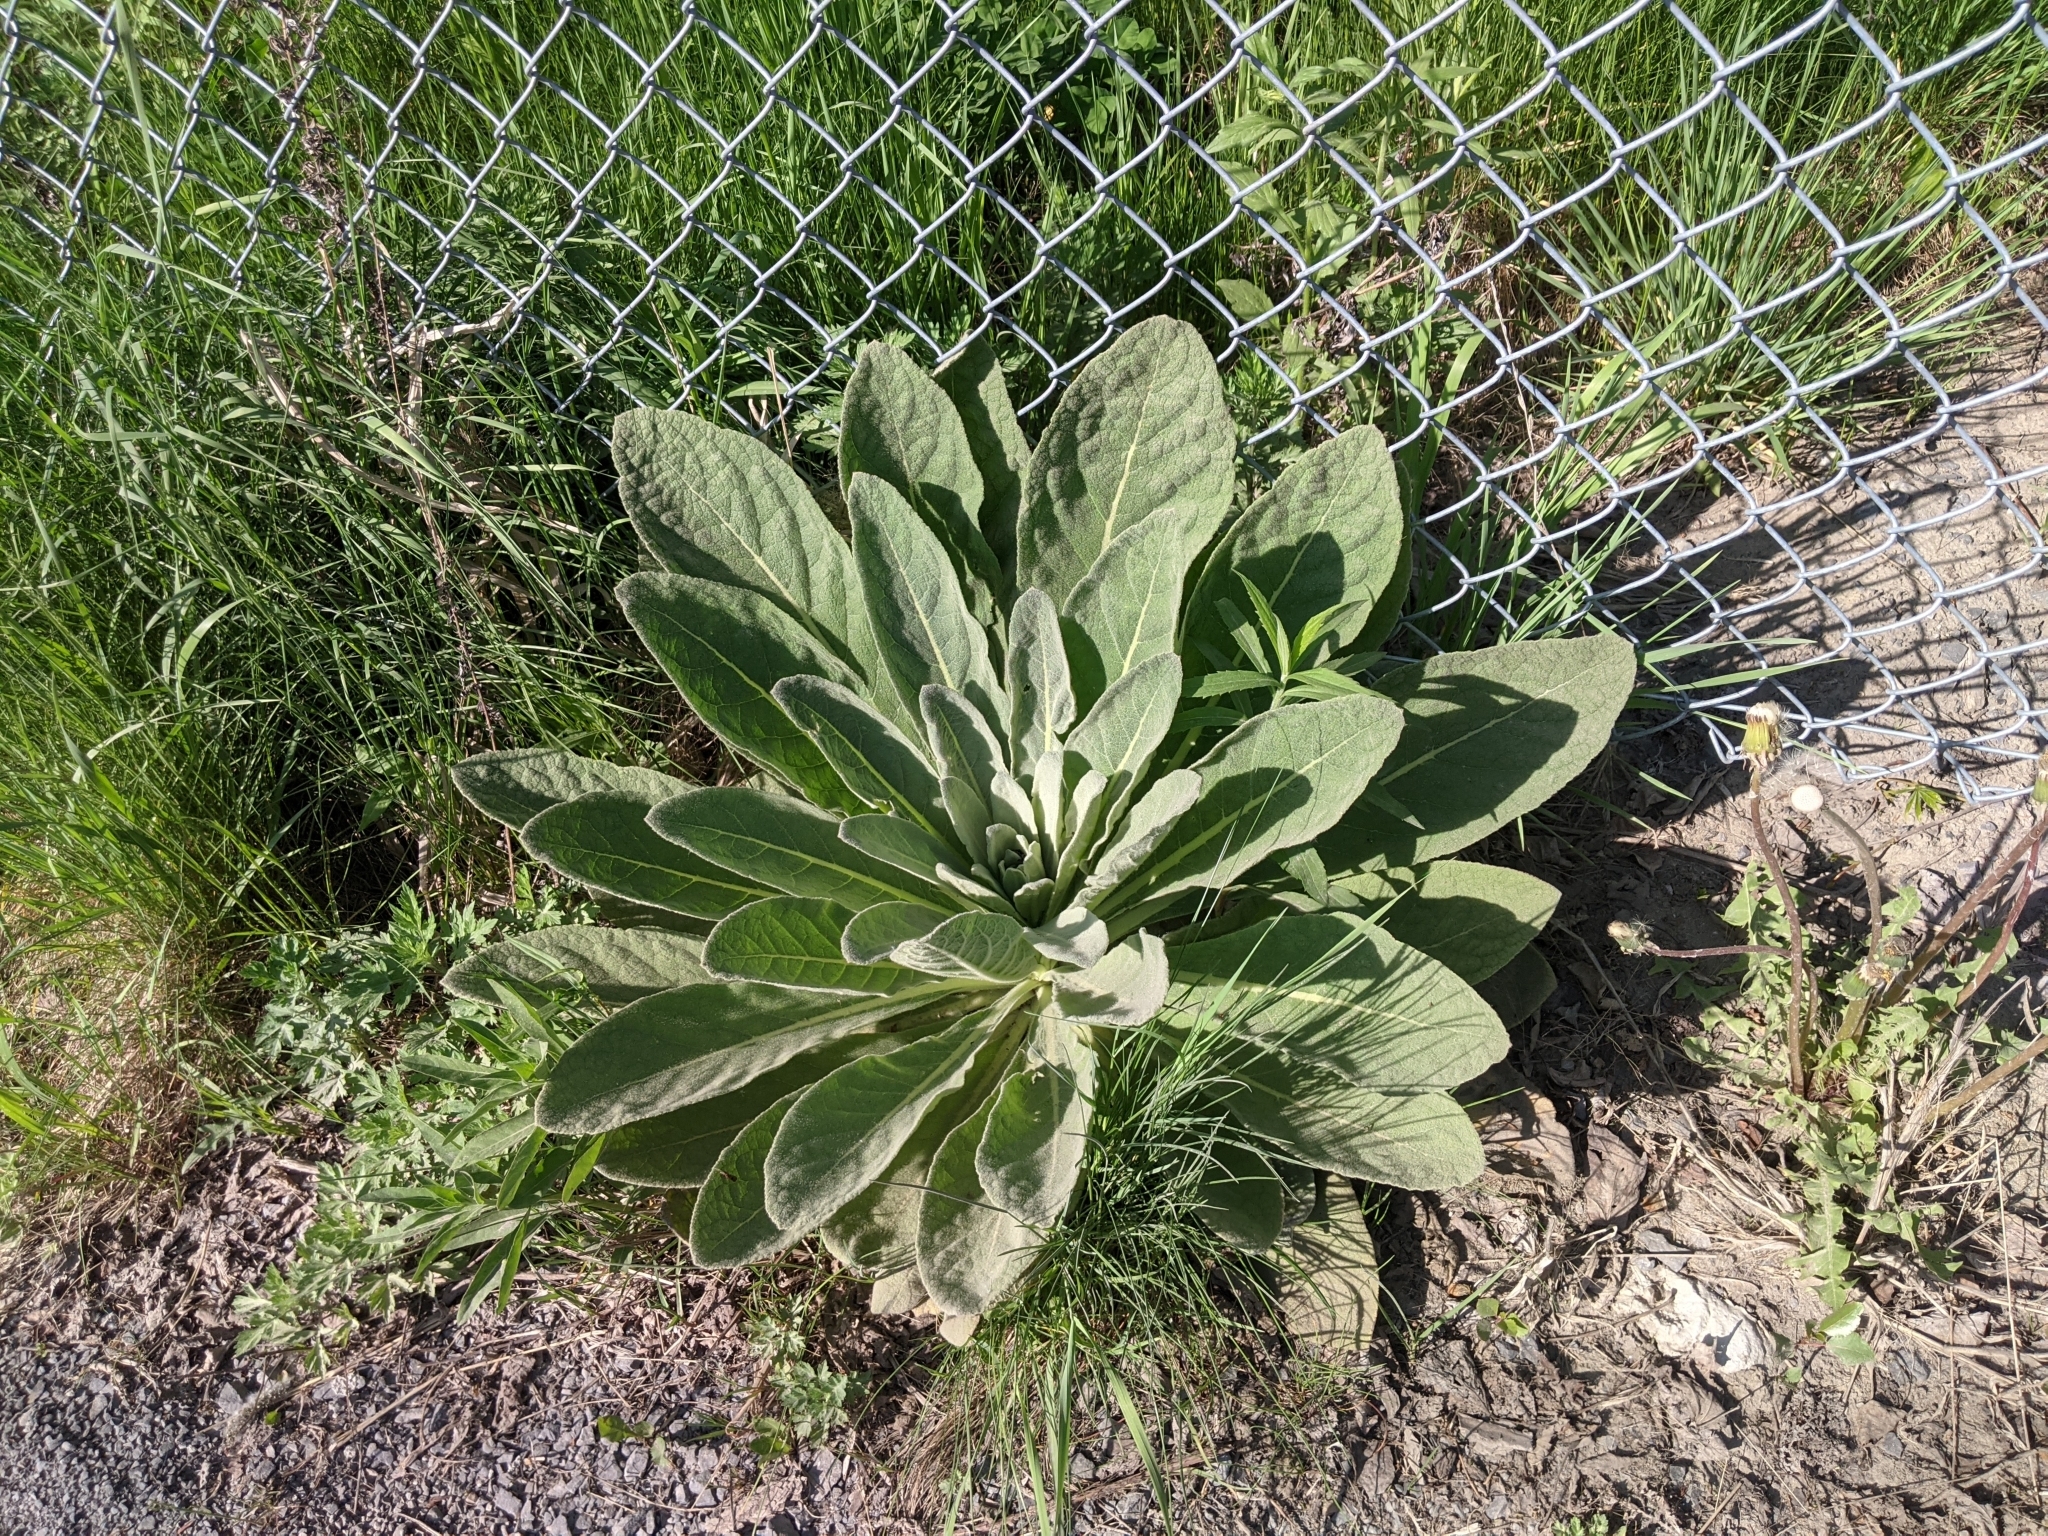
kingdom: Plantae
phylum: Tracheophyta
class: Magnoliopsida
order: Lamiales
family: Scrophulariaceae
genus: Verbascum
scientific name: Verbascum thapsus
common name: Common mullein
